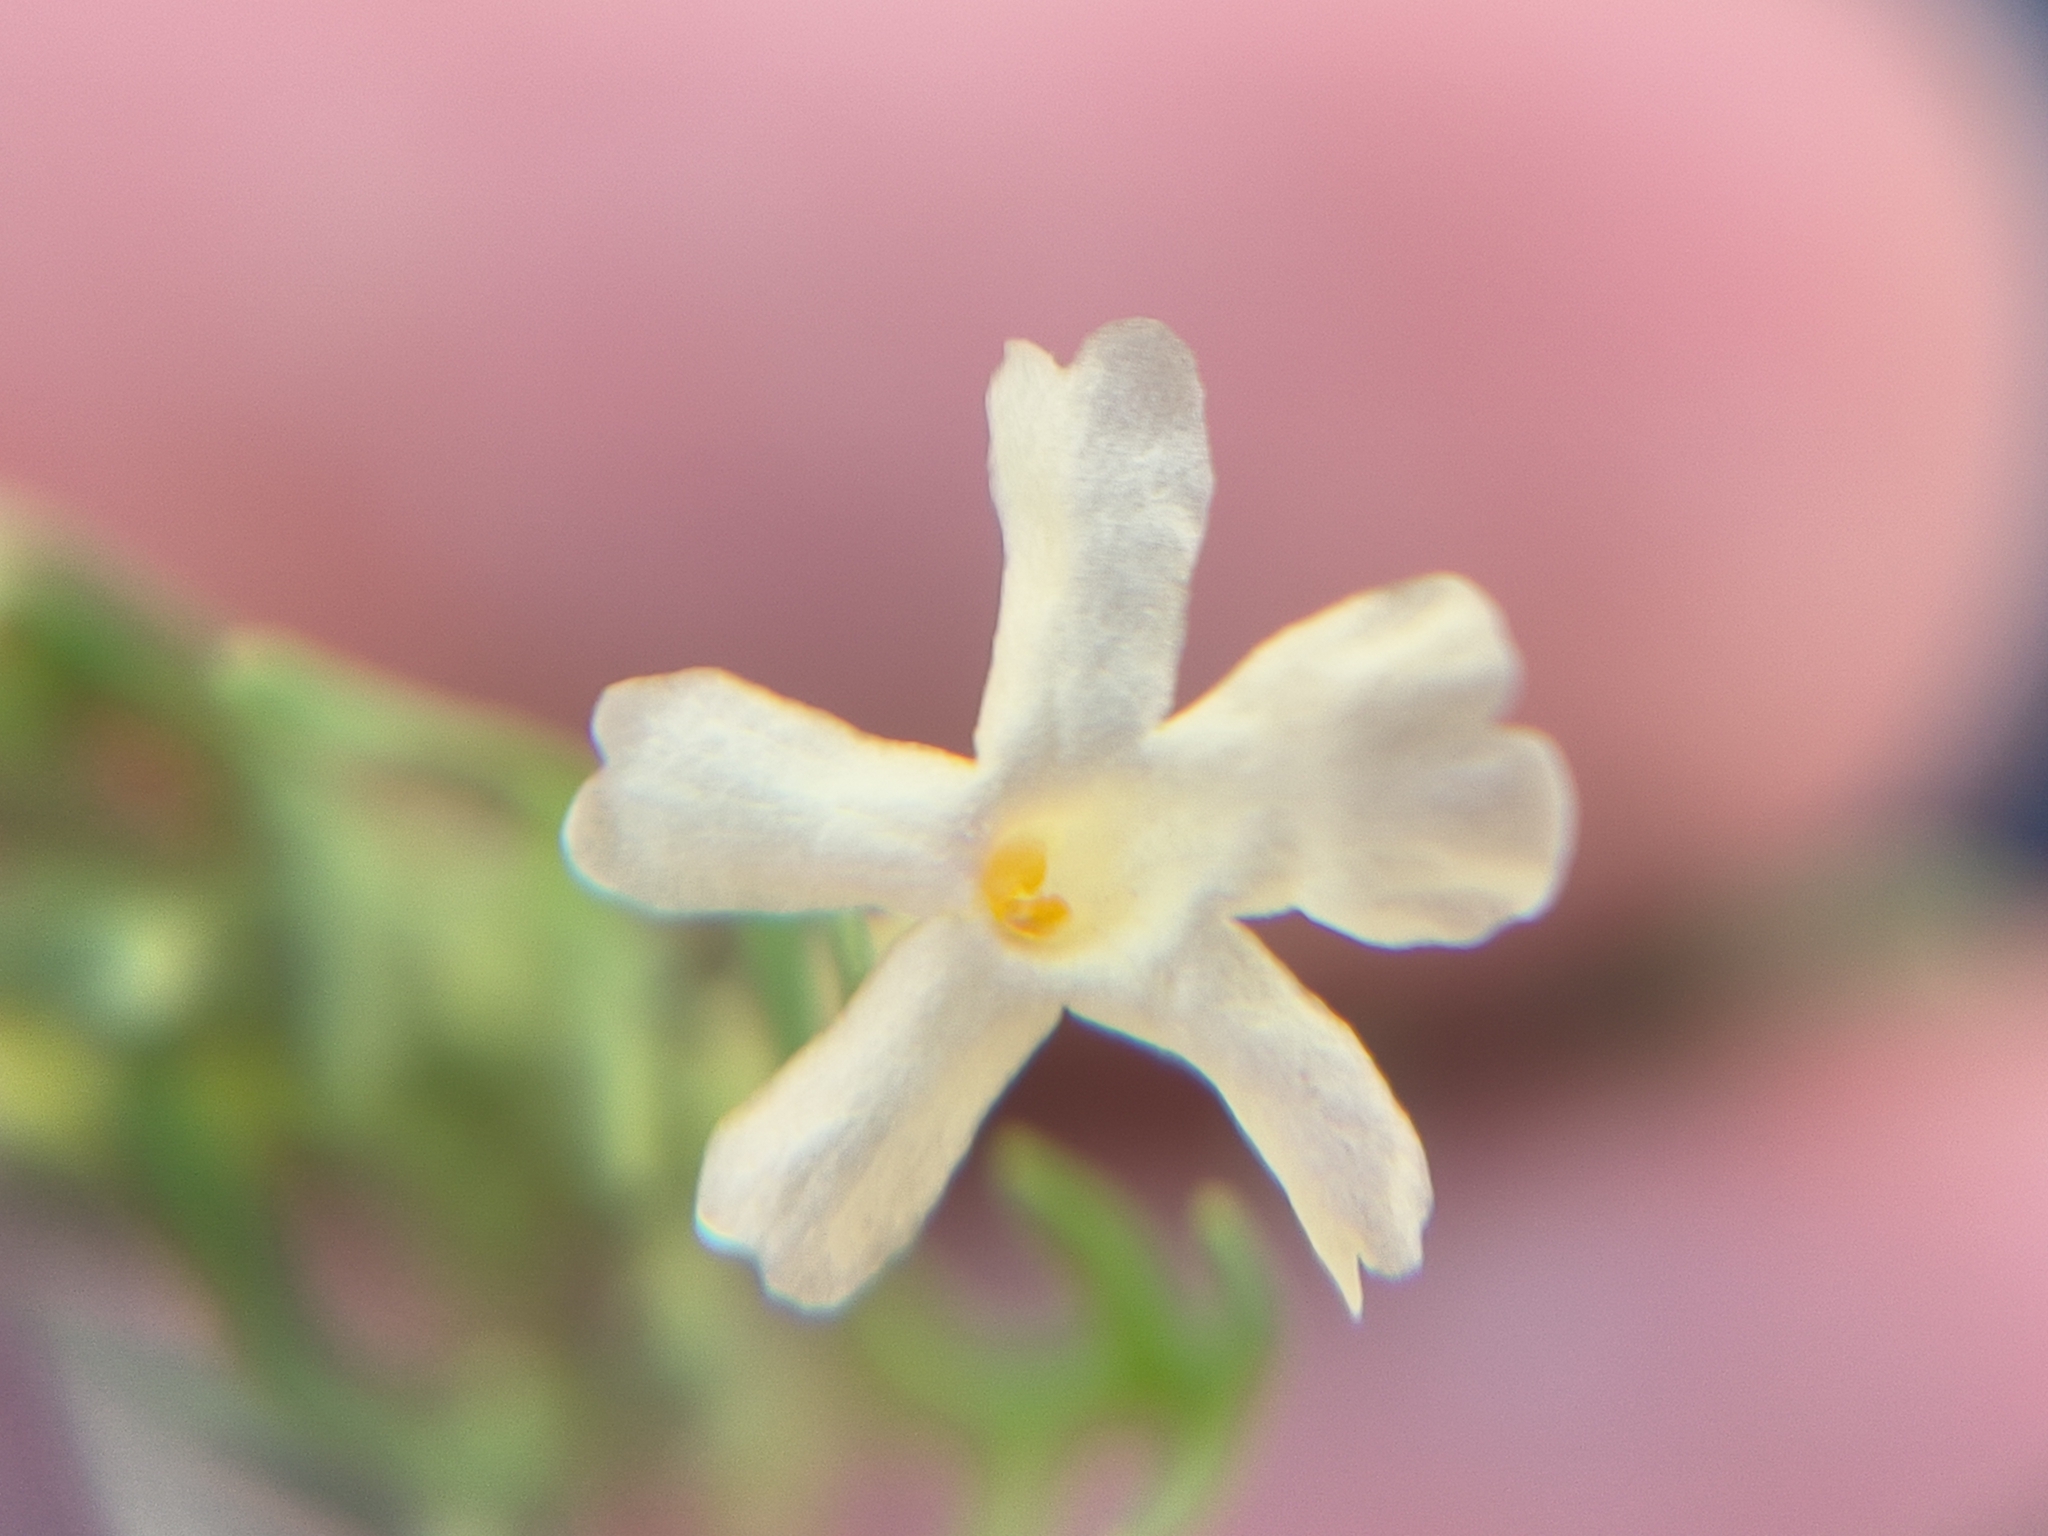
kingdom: Plantae
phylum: Tracheophyta
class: Magnoliopsida
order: Lamiales
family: Verbenaceae
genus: Chascanum
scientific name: Chascanum pinnatifidum
